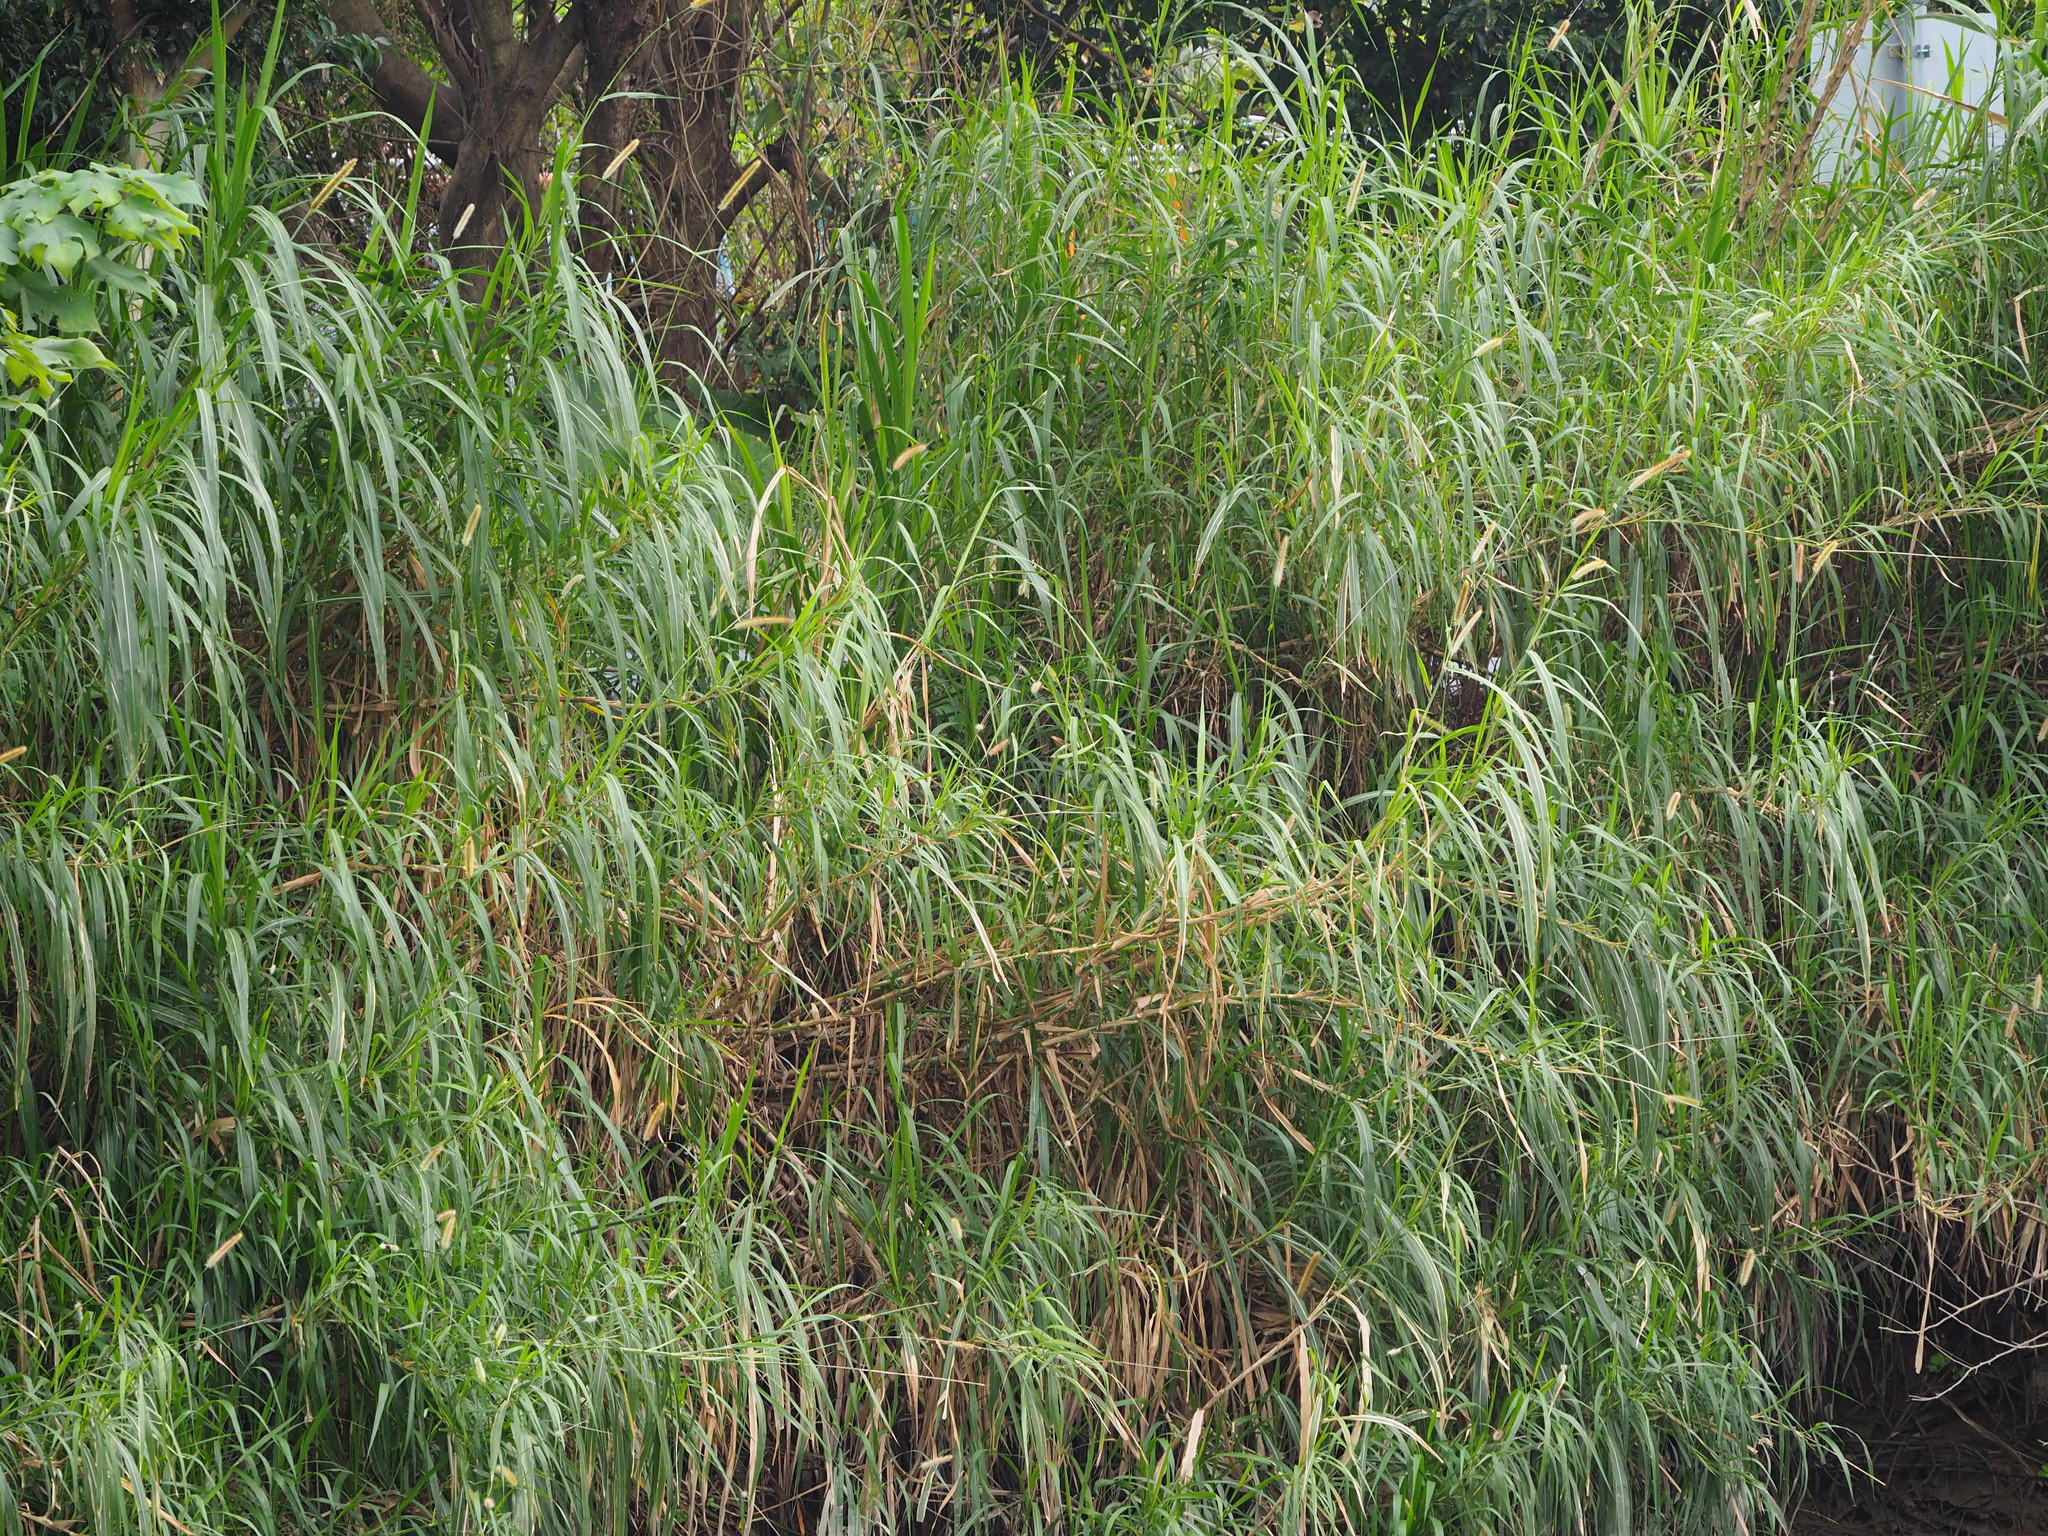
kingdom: Plantae
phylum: Tracheophyta
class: Liliopsida
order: Poales
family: Poaceae
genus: Cenchrus
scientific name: Cenchrus purpureus
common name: Elephant grass
